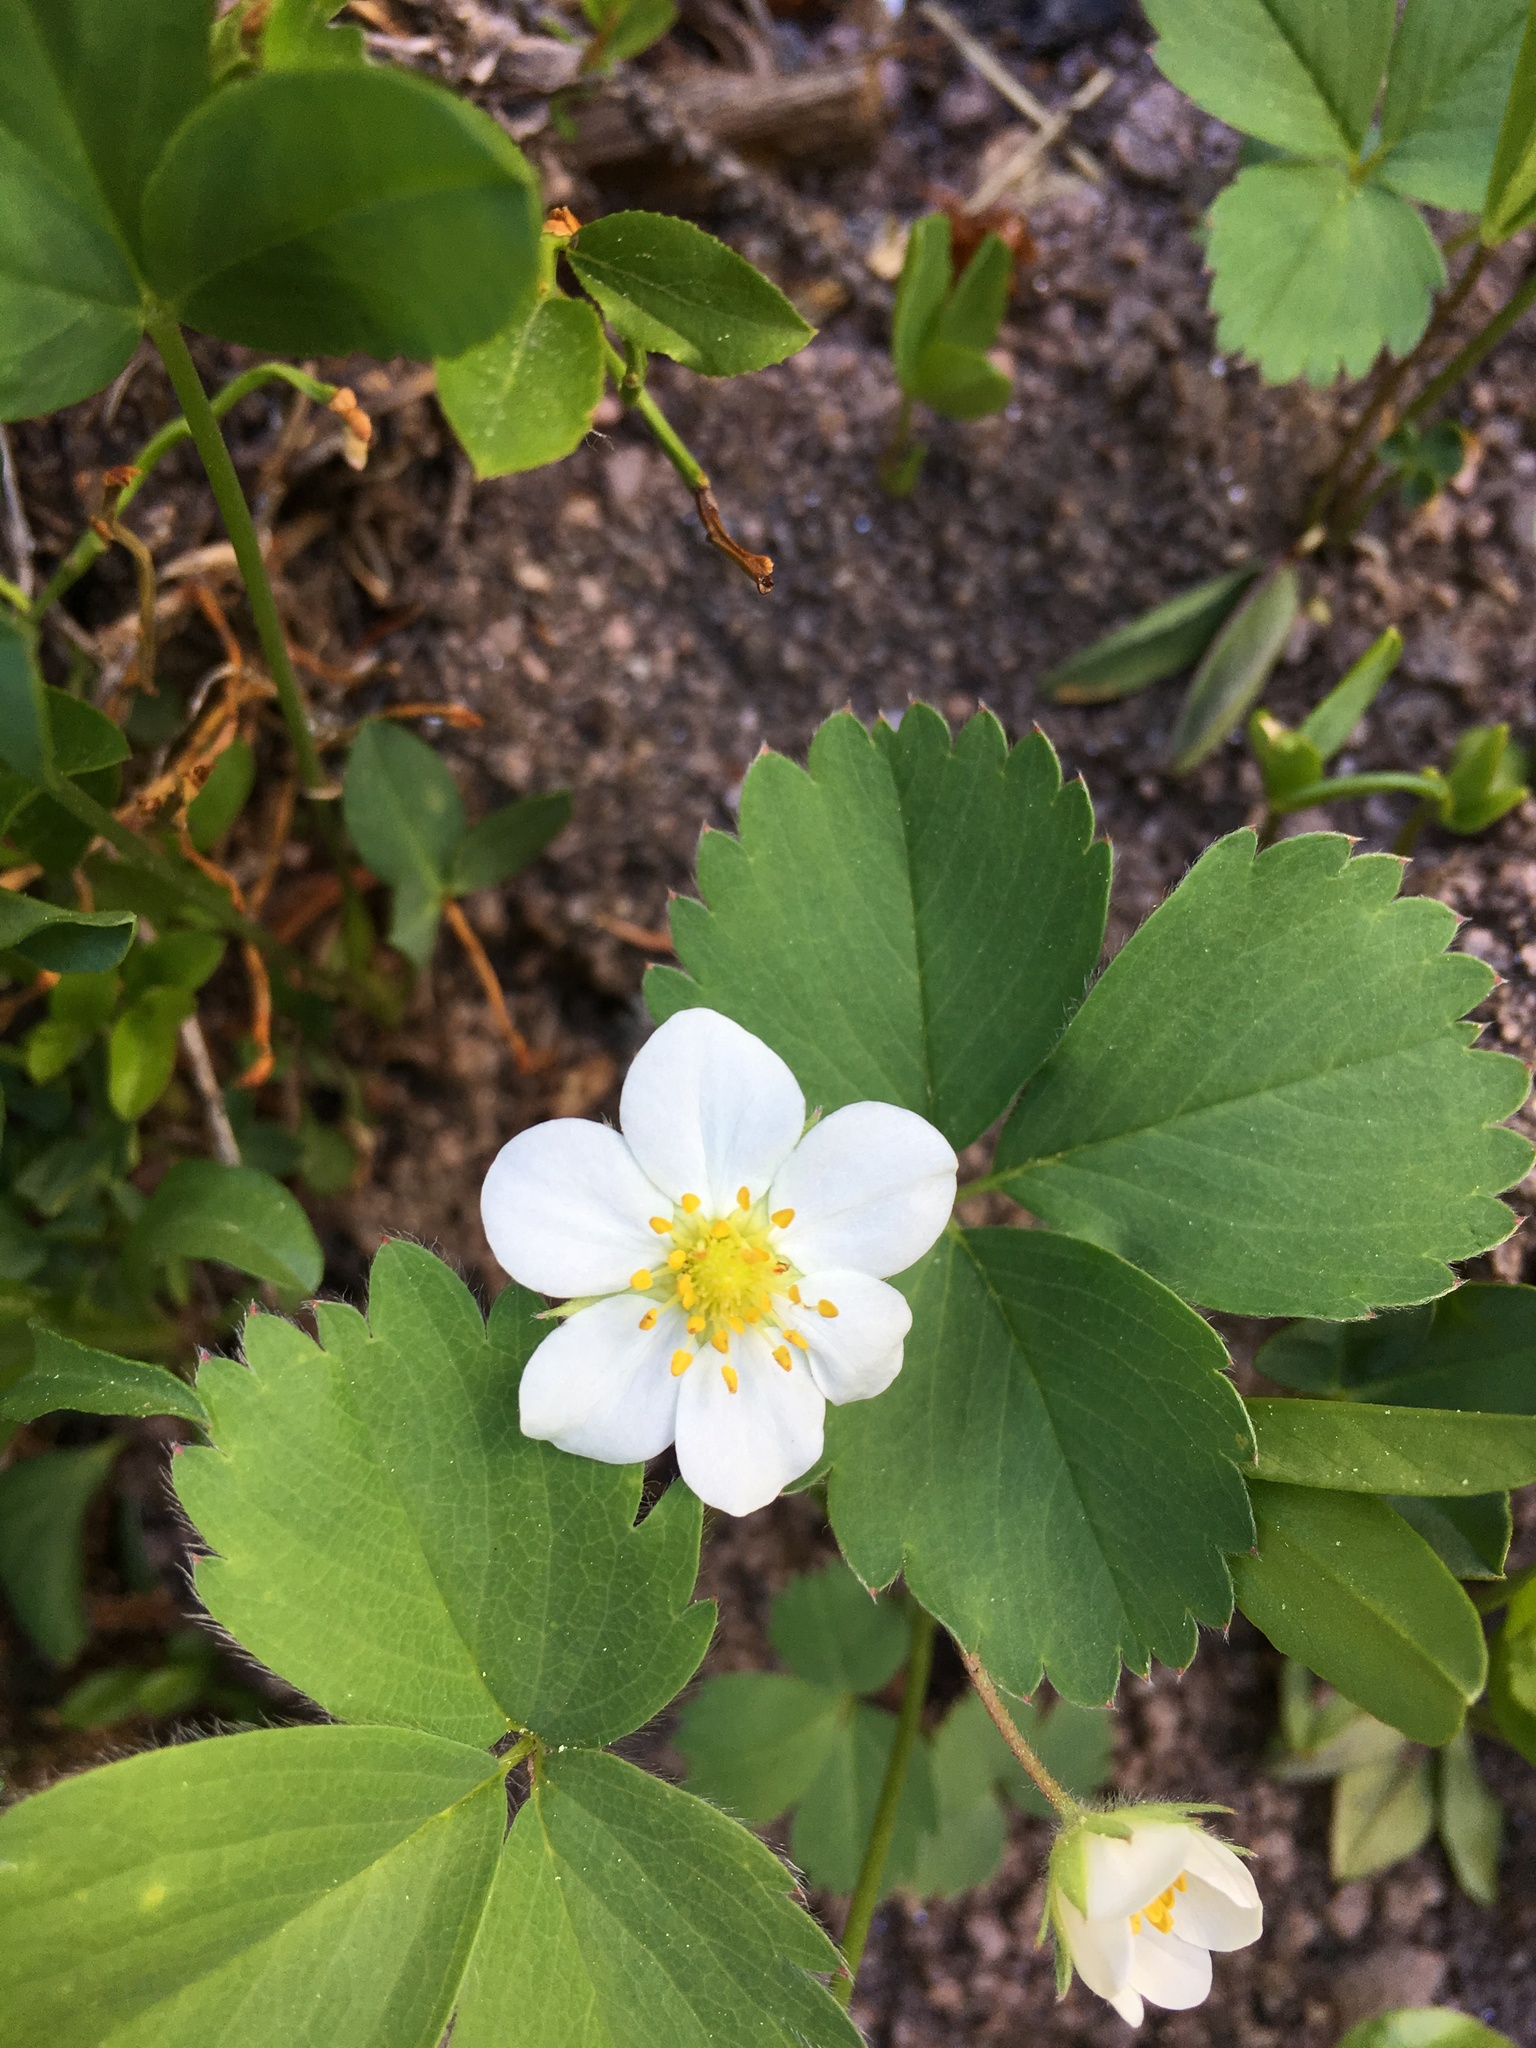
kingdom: Plantae
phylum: Tracheophyta
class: Magnoliopsida
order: Rosales
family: Rosaceae
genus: Fragaria
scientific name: Fragaria virginiana
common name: Thickleaved wild strawberry
